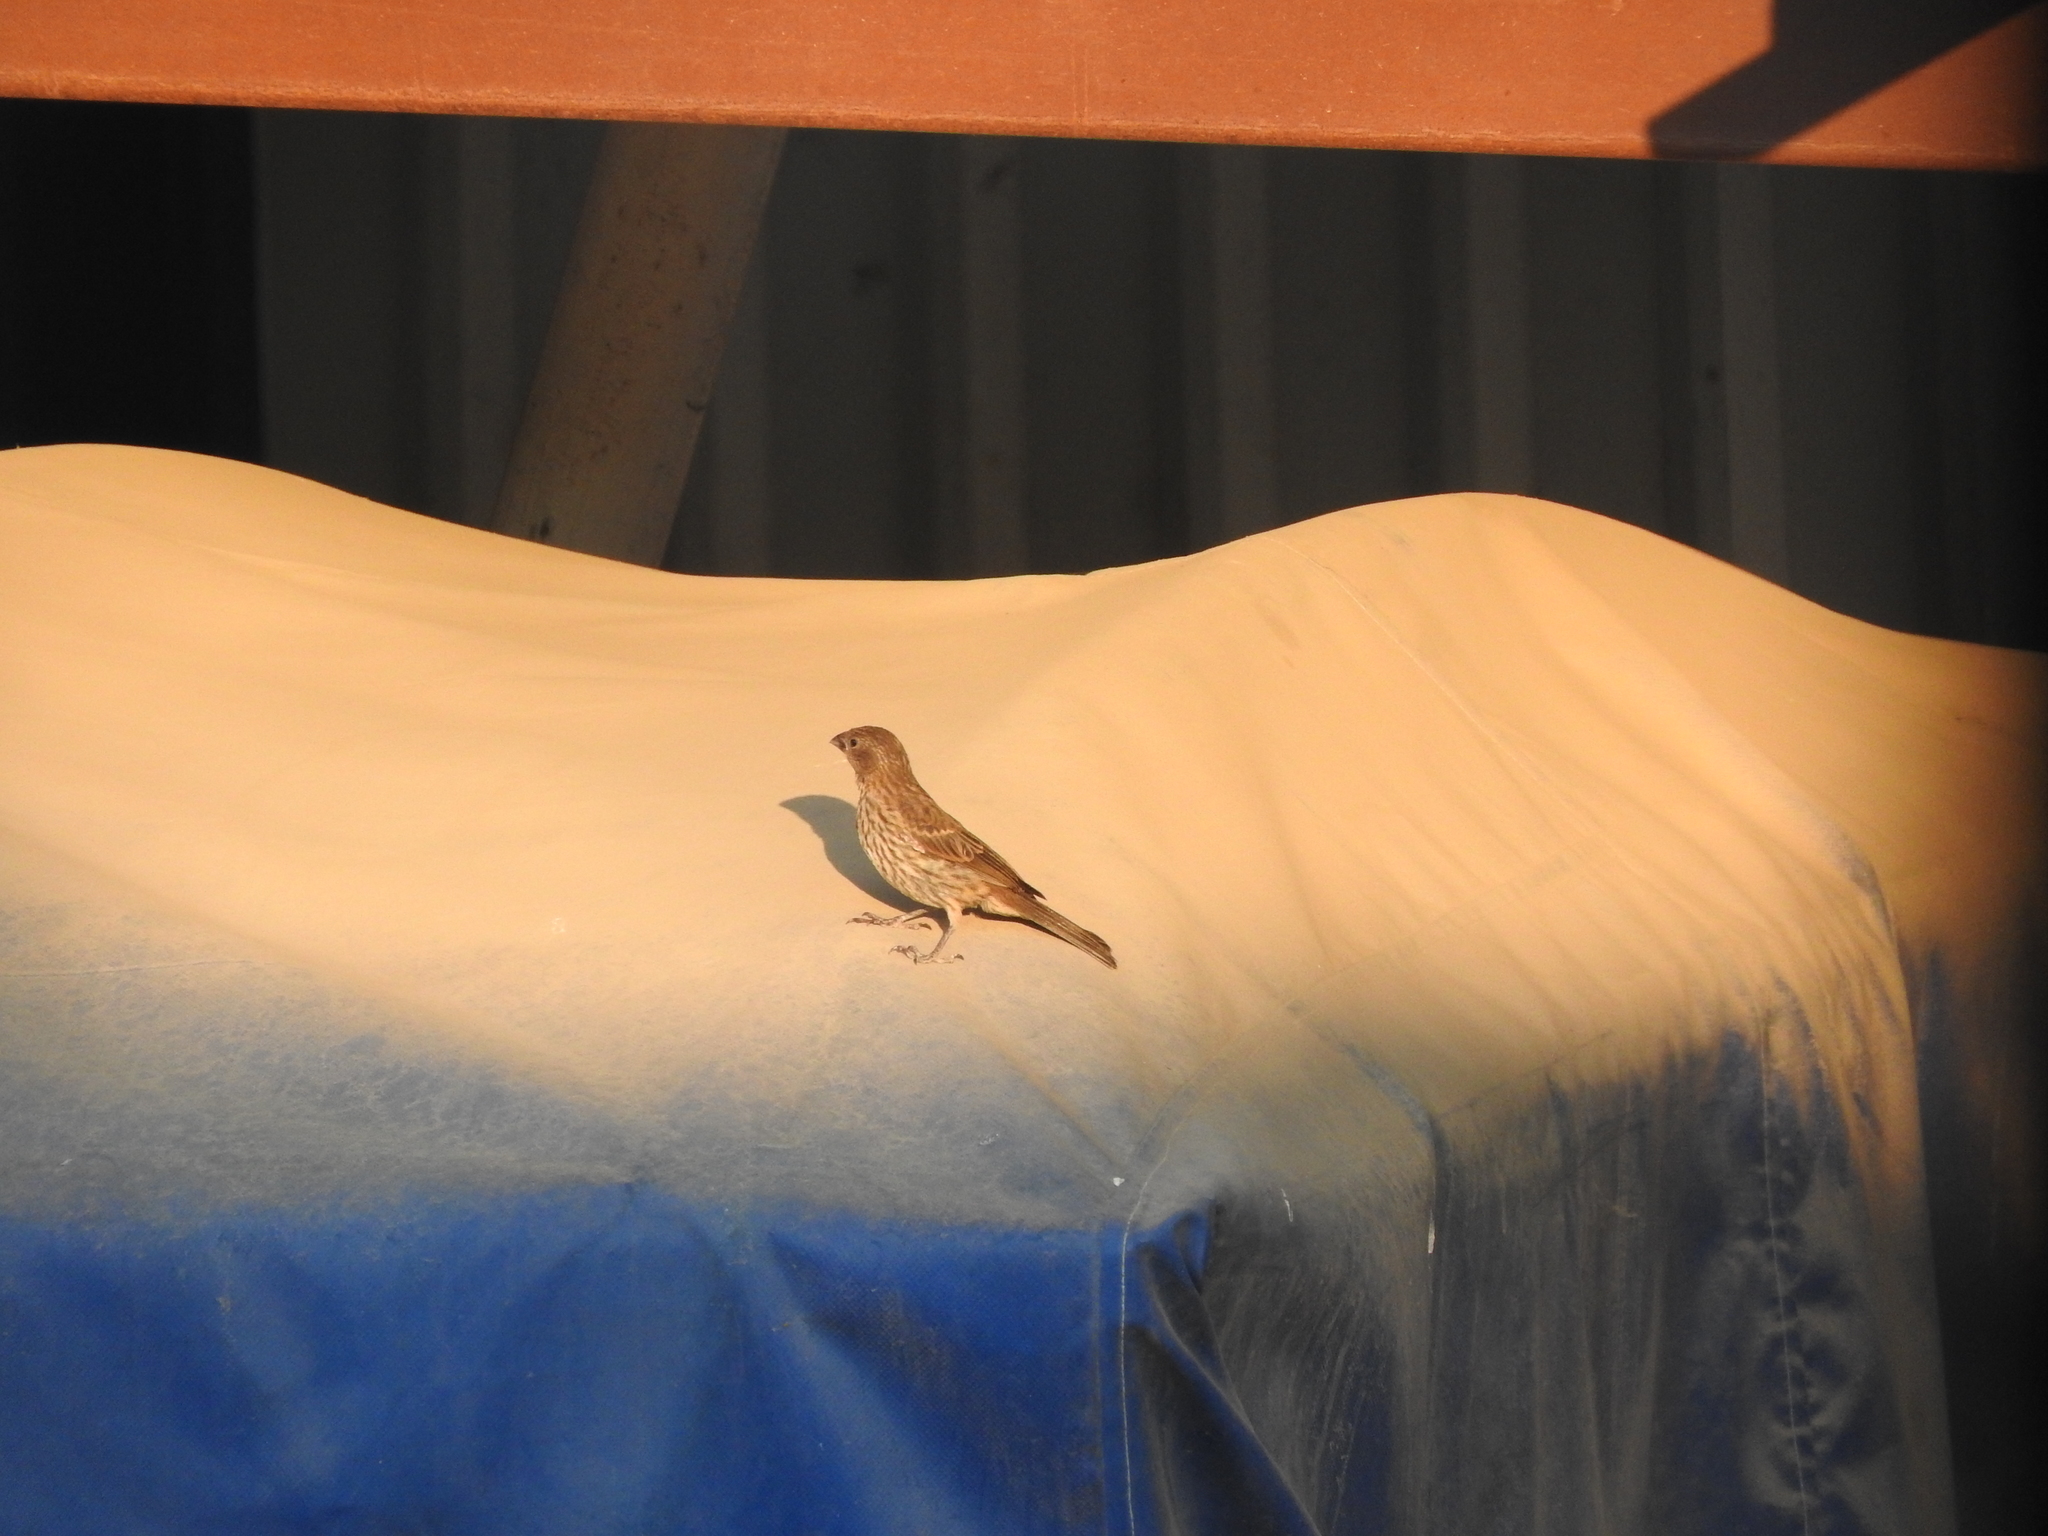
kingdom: Animalia
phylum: Chordata
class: Aves
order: Passeriformes
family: Fringillidae
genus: Haemorhous
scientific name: Haemorhous mexicanus
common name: House finch
